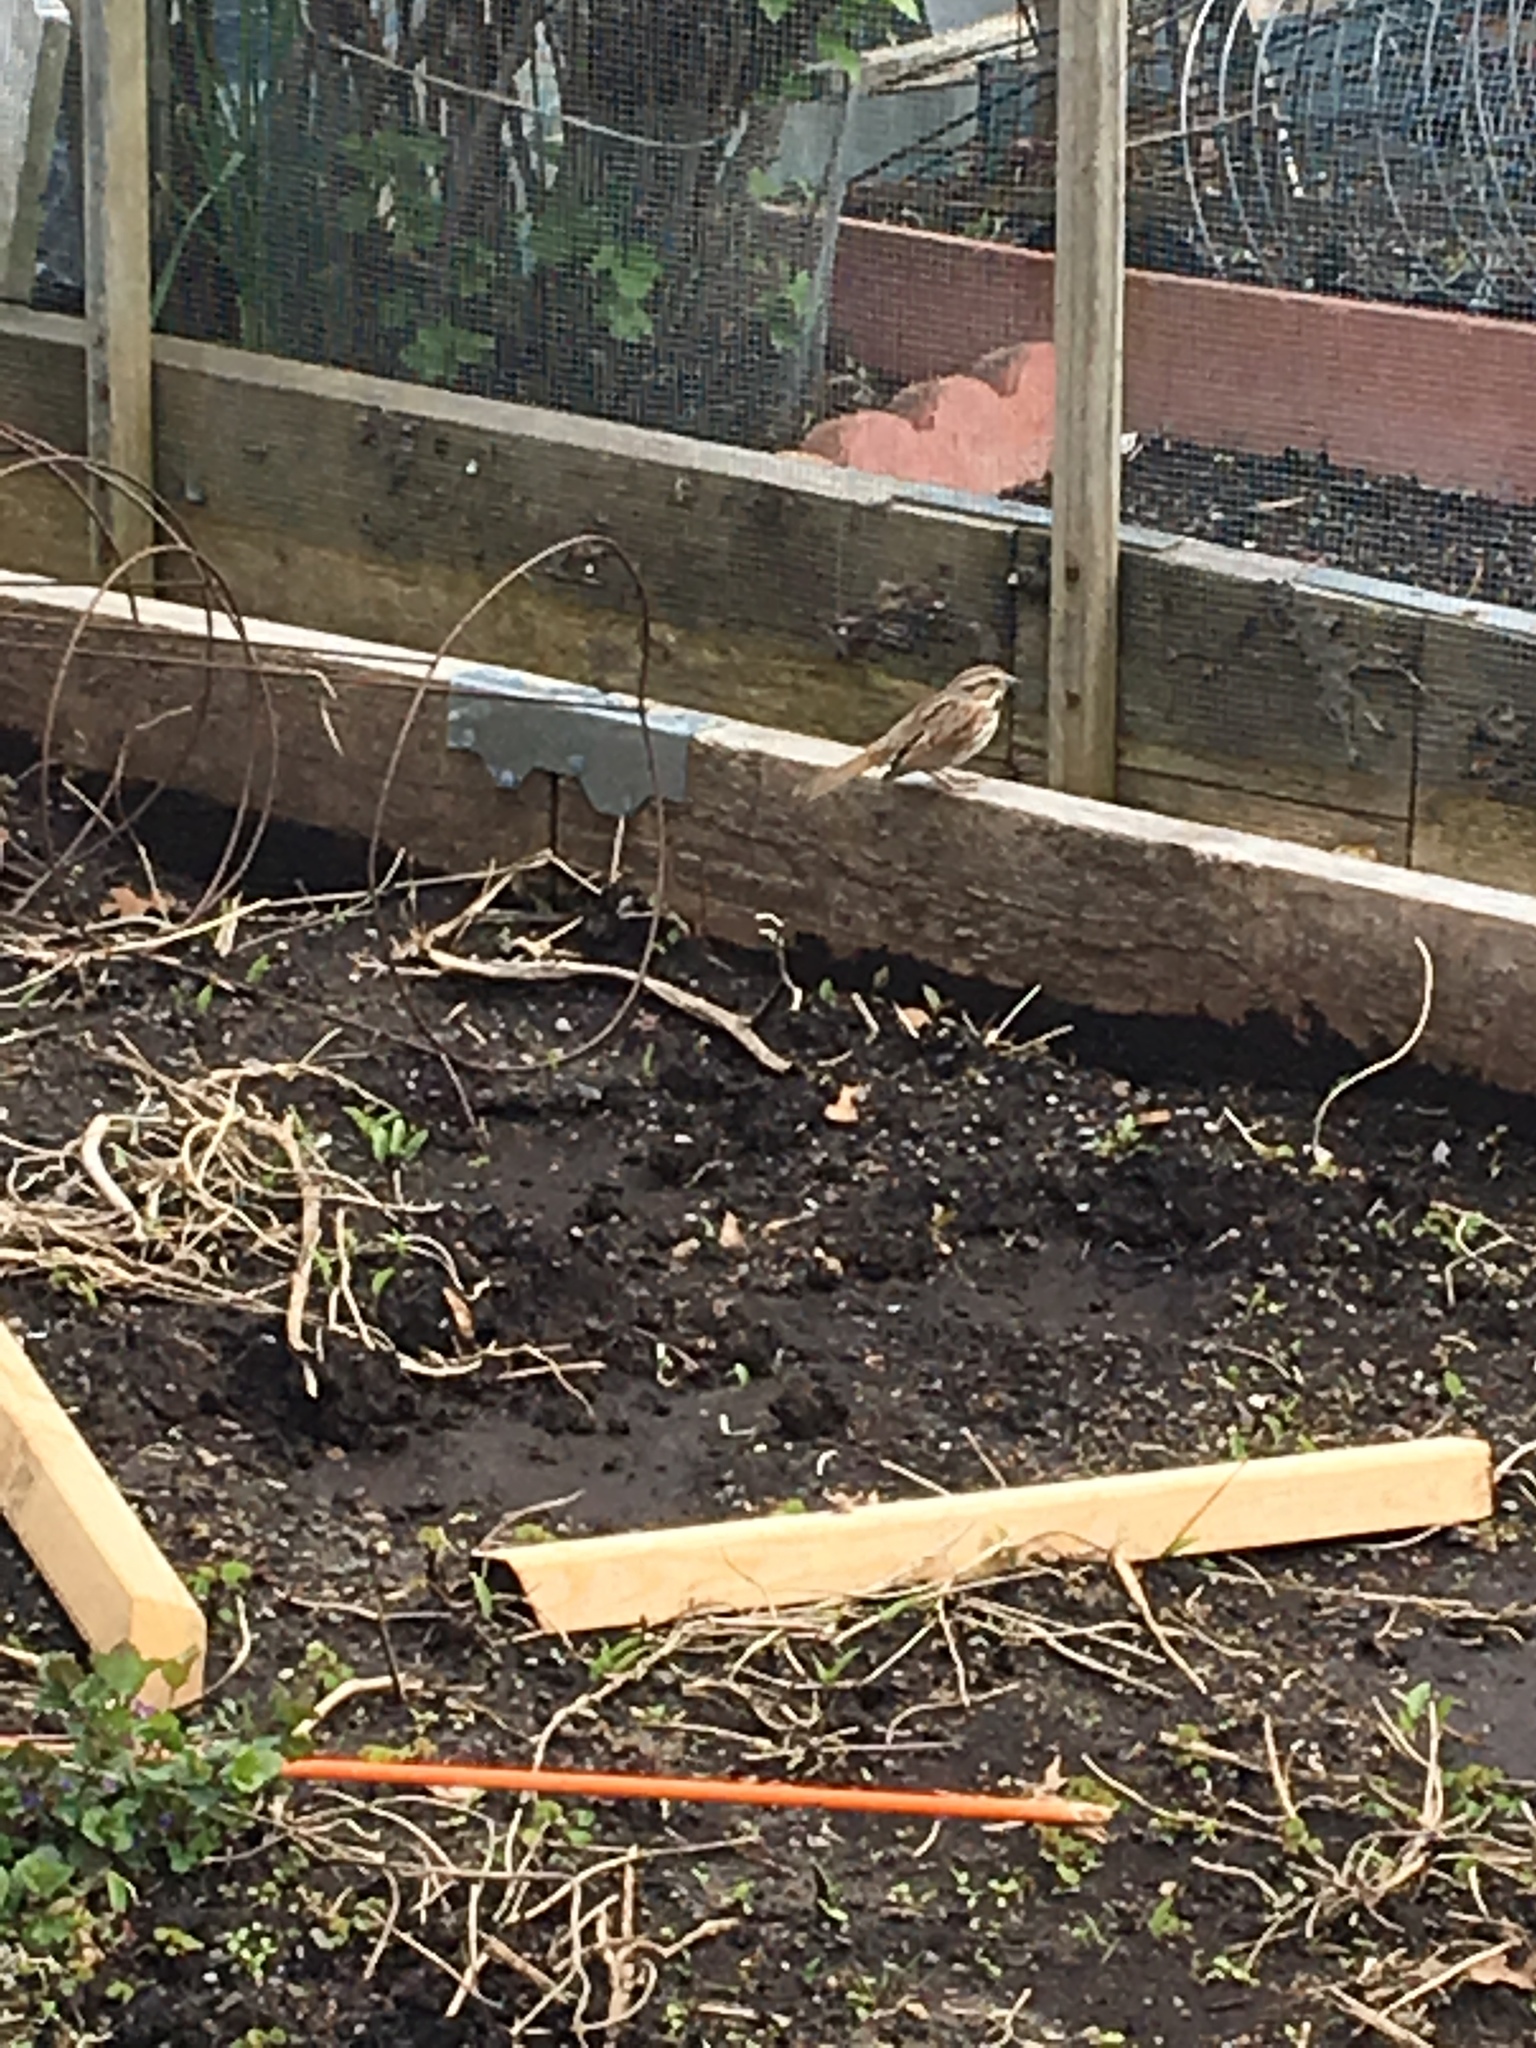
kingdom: Animalia
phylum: Chordata
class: Aves
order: Passeriformes
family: Passerellidae
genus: Melospiza
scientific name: Melospiza melodia
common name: Song sparrow
